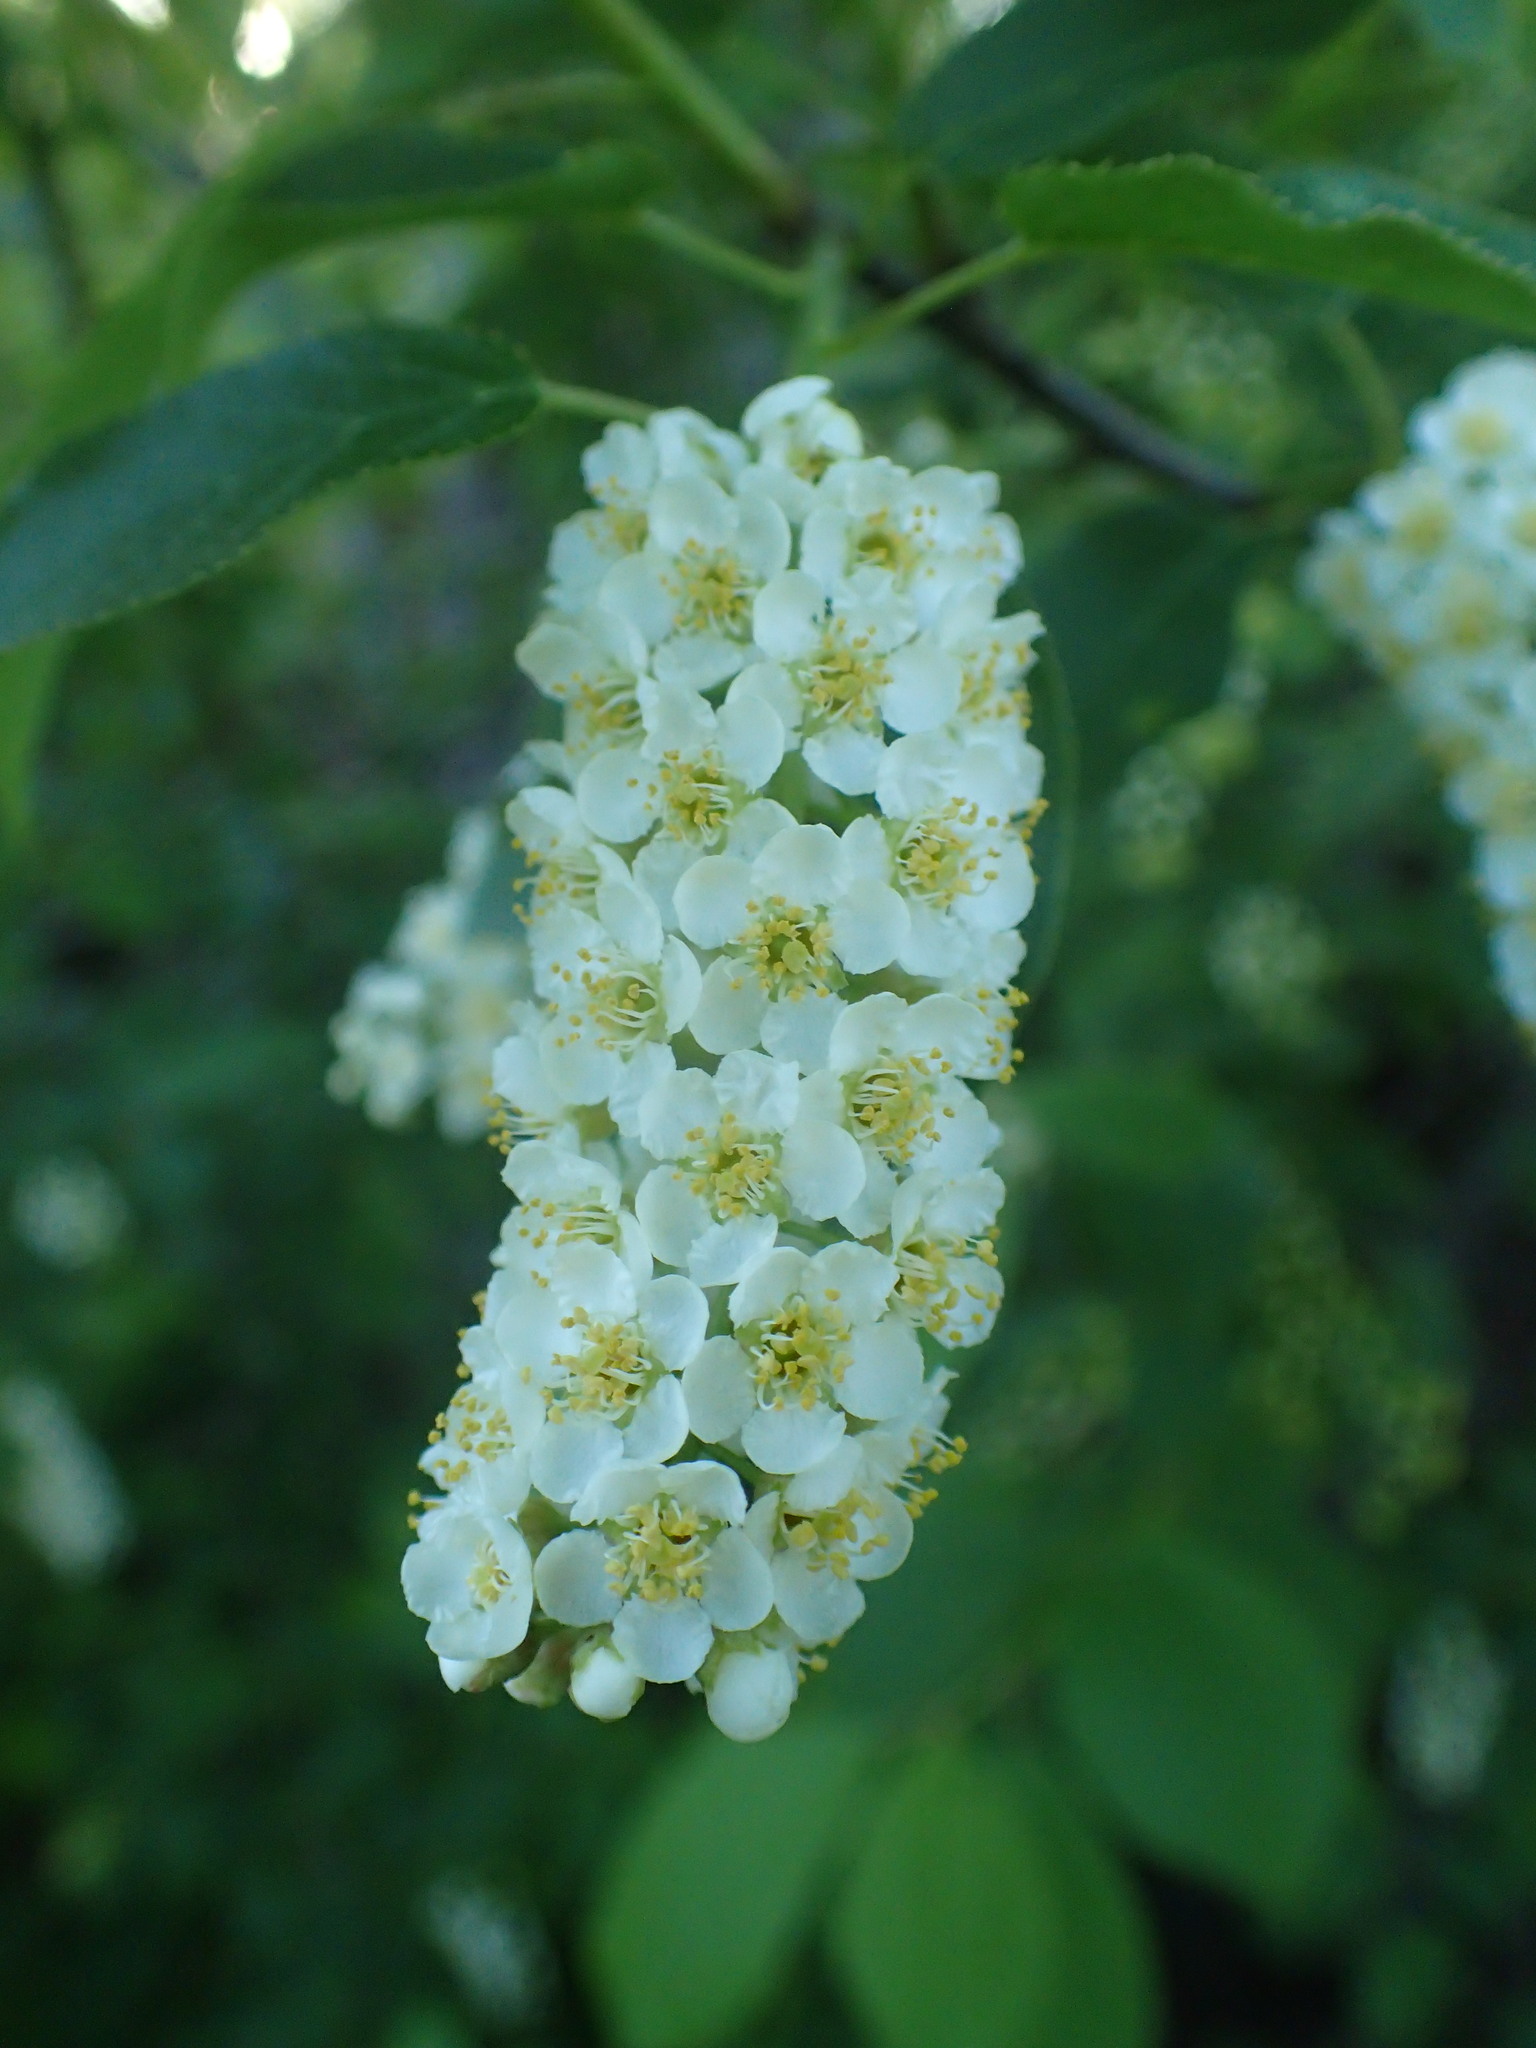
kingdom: Plantae
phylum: Tracheophyta
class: Magnoliopsida
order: Rosales
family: Rosaceae
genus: Prunus
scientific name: Prunus virginiana
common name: Chokecherry
